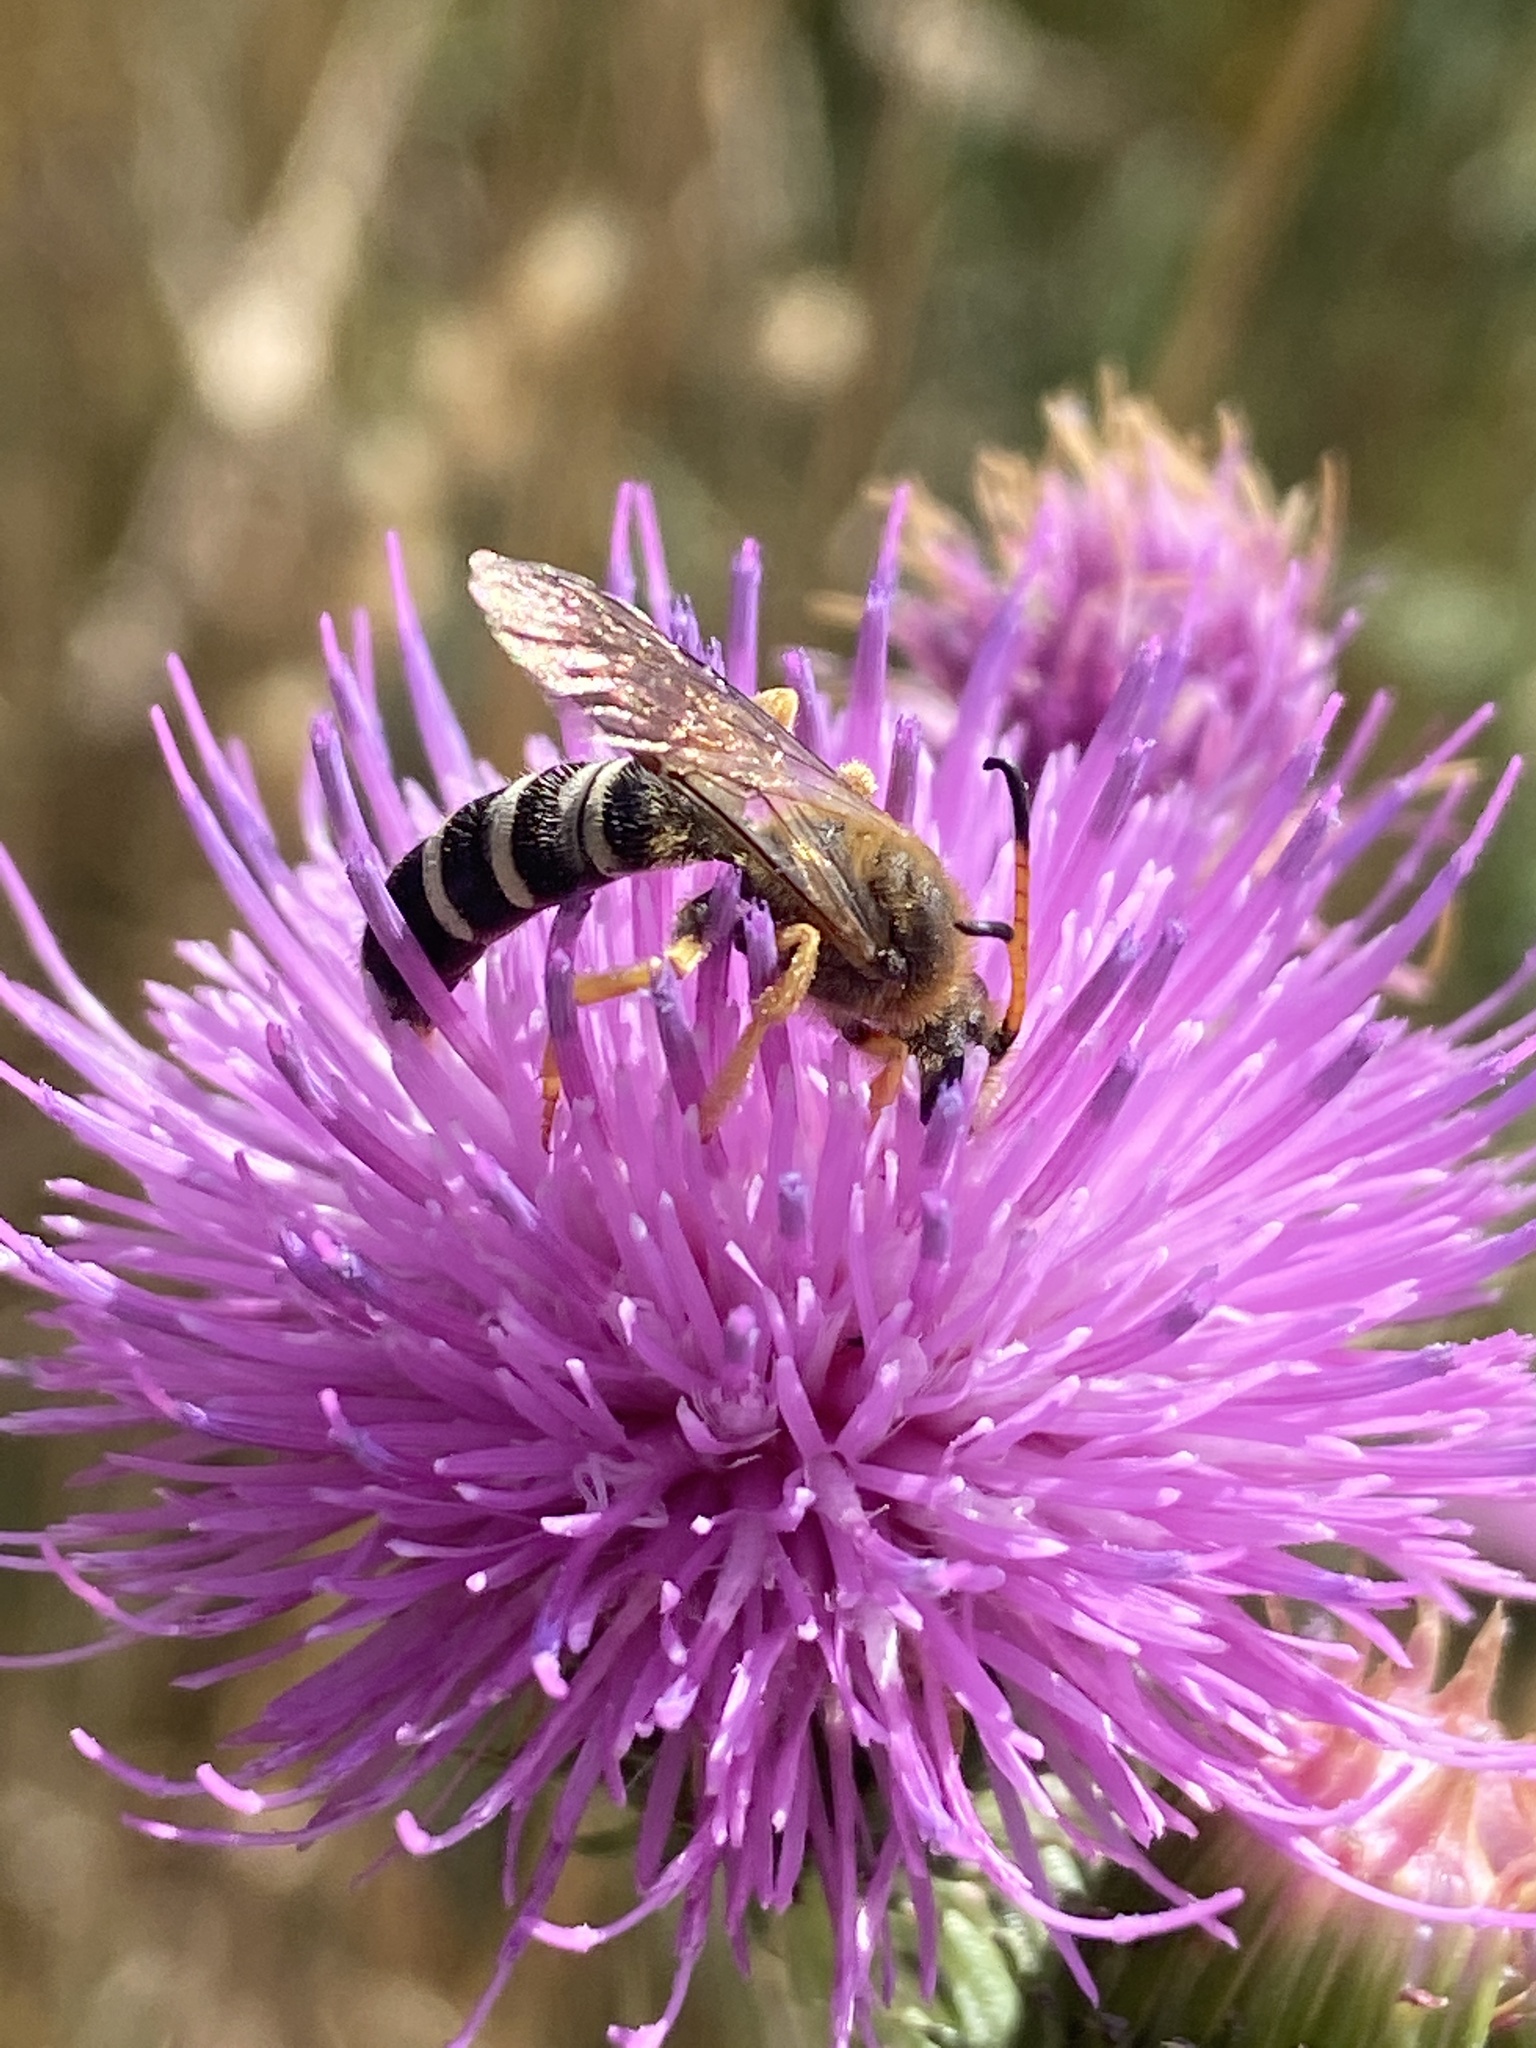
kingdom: Animalia
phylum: Arthropoda
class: Insecta
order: Hymenoptera
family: Halictidae
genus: Halictus
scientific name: Halictus sexcinctus
